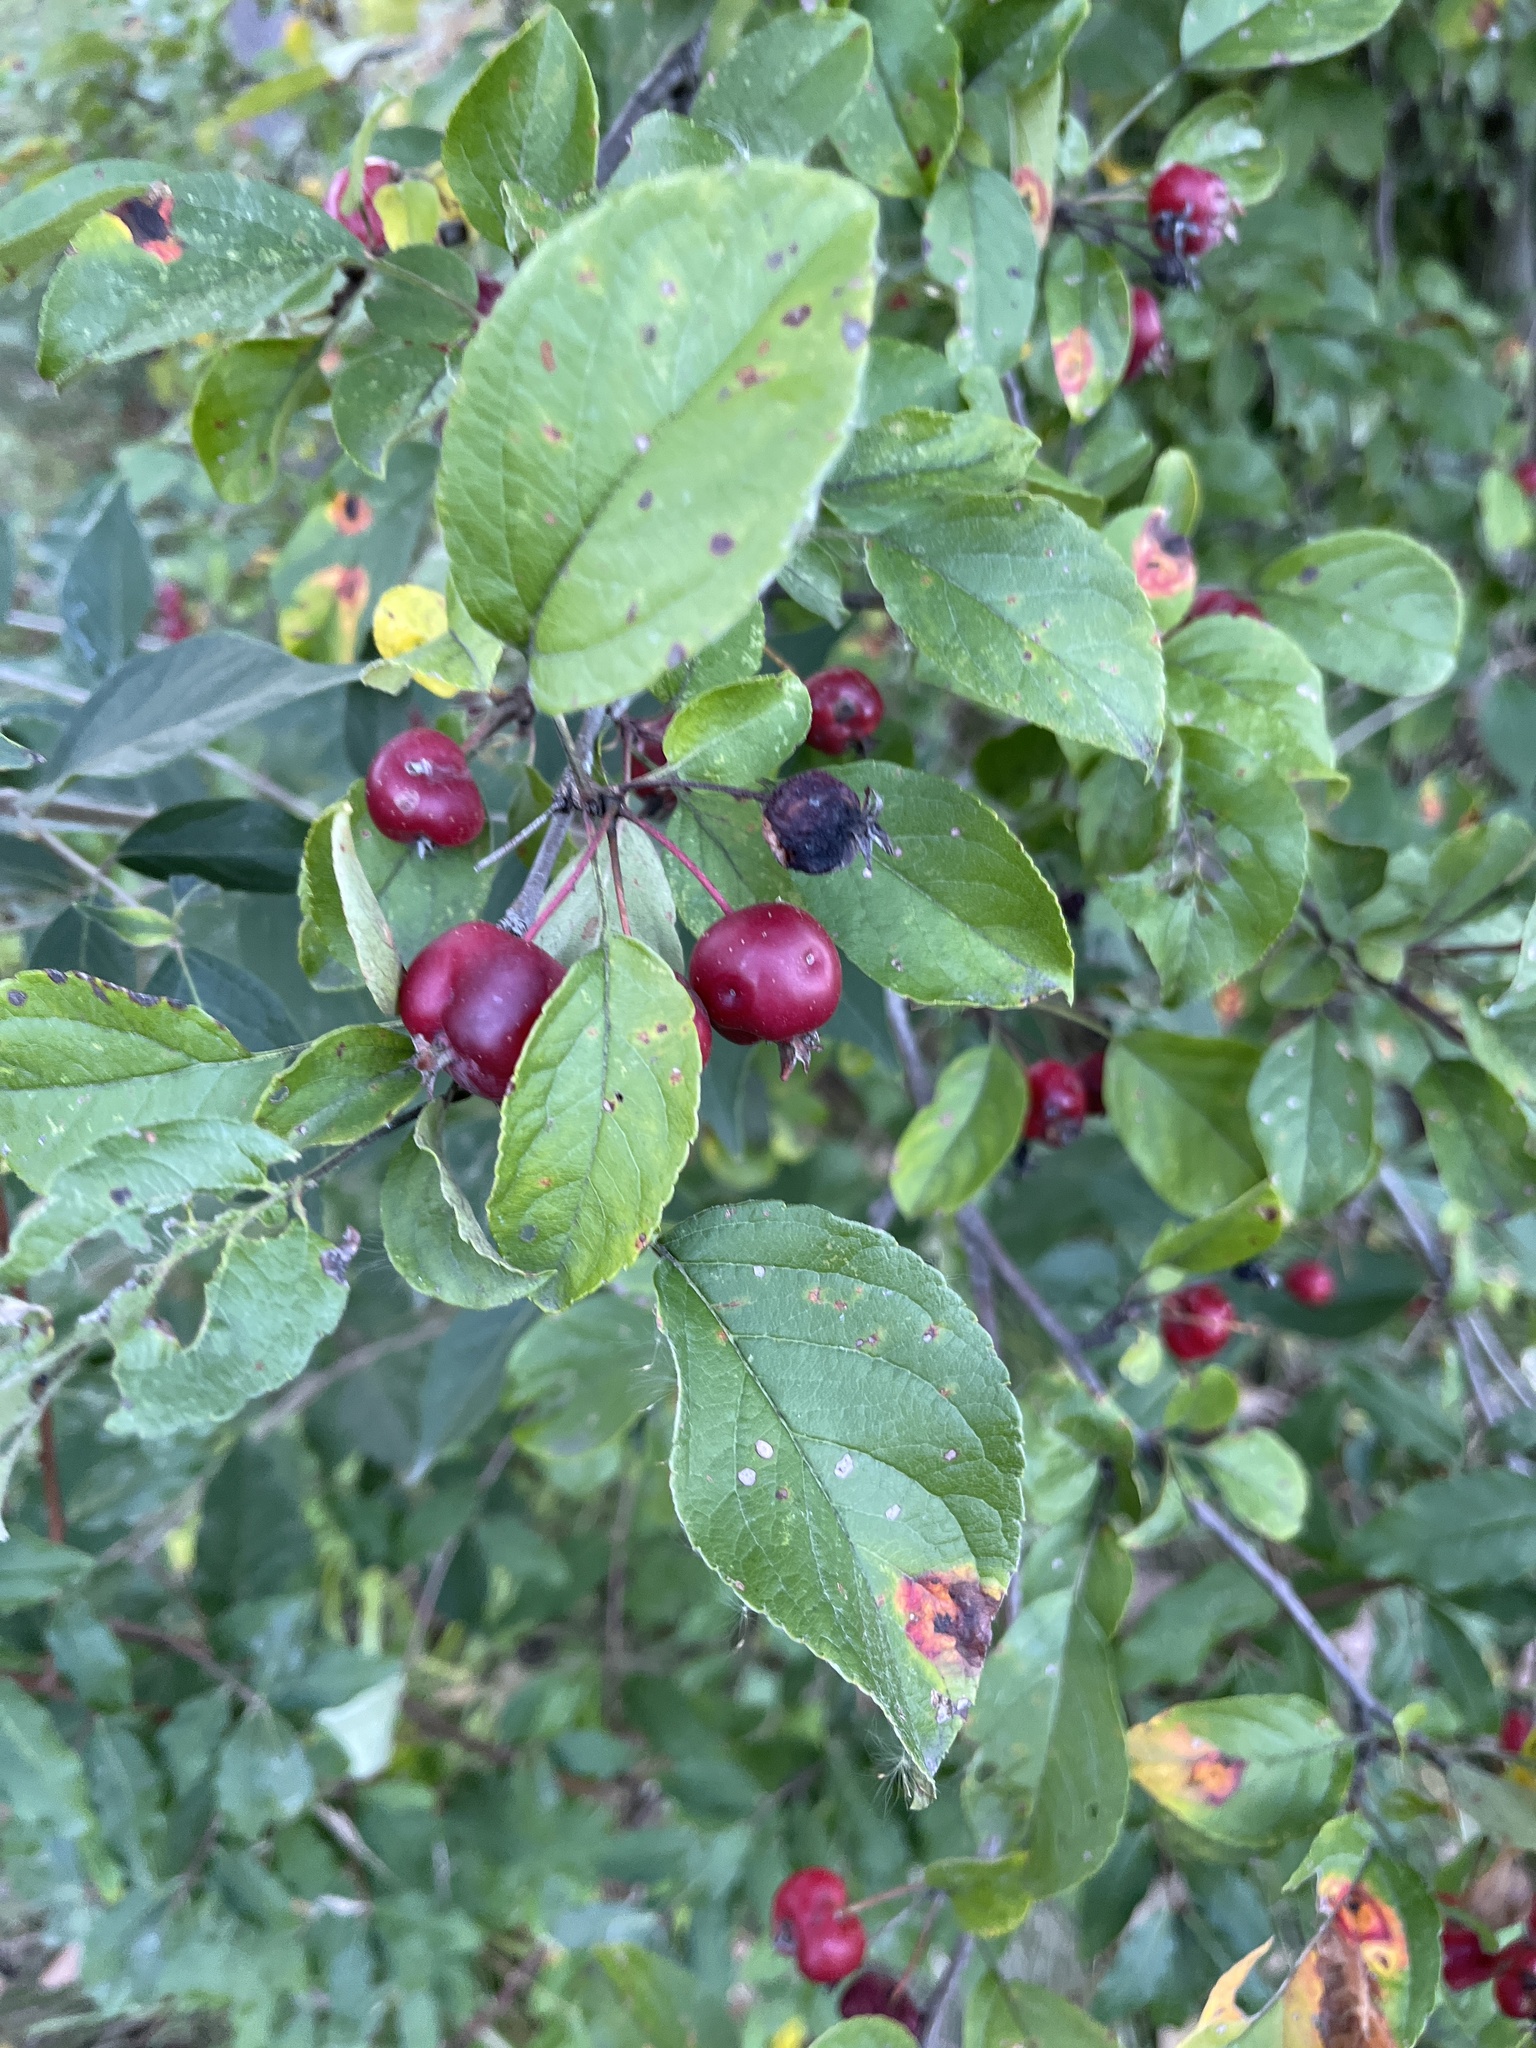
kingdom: Plantae
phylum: Tracheophyta
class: Magnoliopsida
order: Rosales
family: Rosaceae
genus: Malus
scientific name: Malus domestica
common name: Apple
